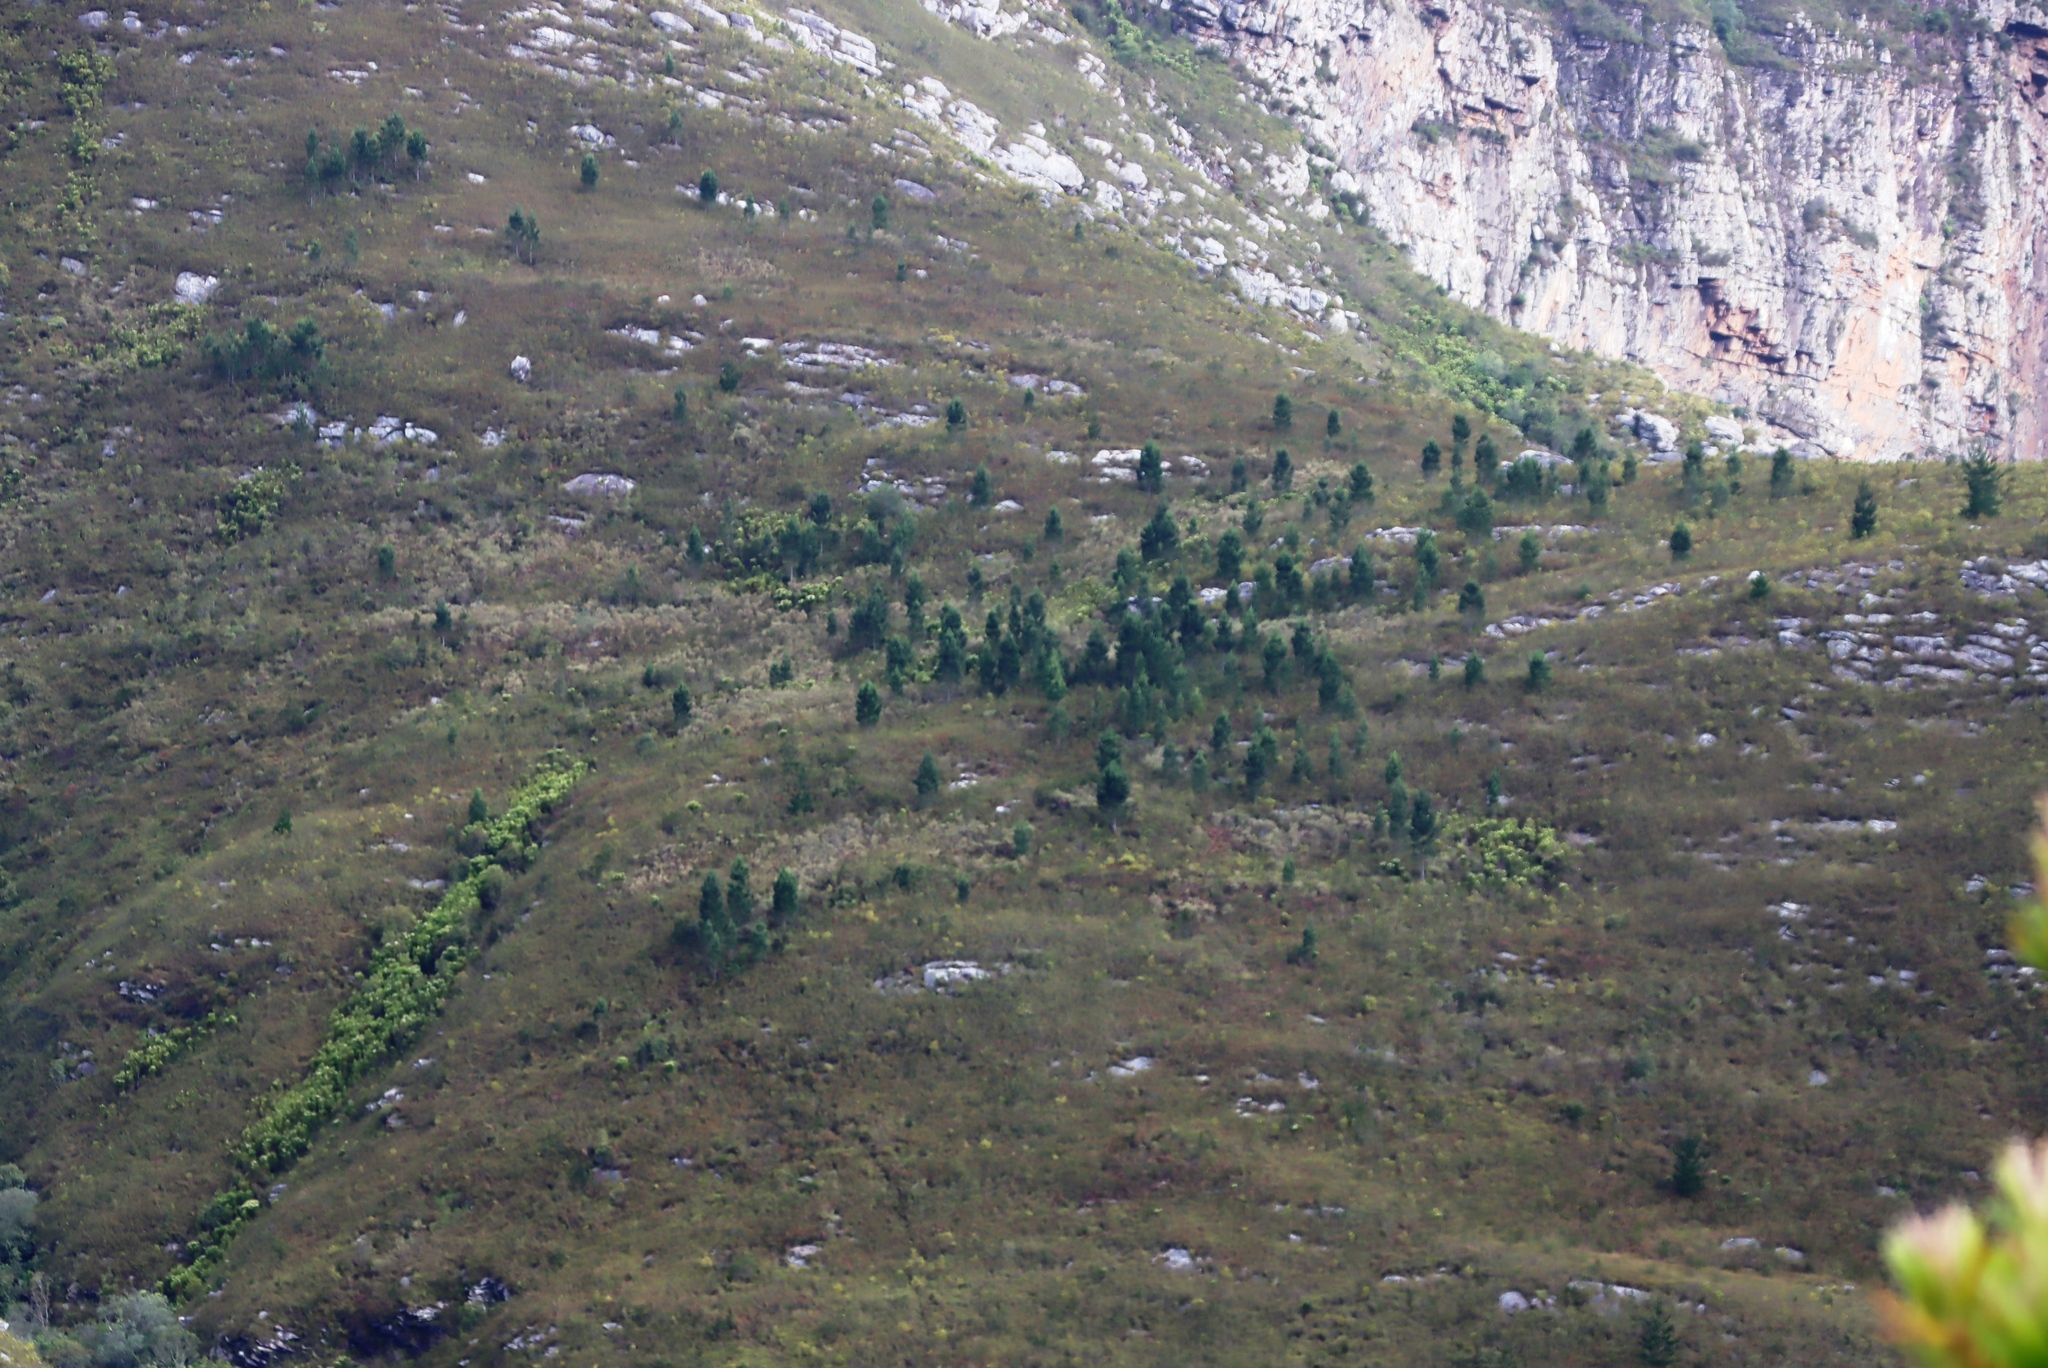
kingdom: Plantae
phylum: Tracheophyta
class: Pinopsida
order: Pinales
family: Pinaceae
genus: Pinus
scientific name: Pinus radiata
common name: Monterey pine
